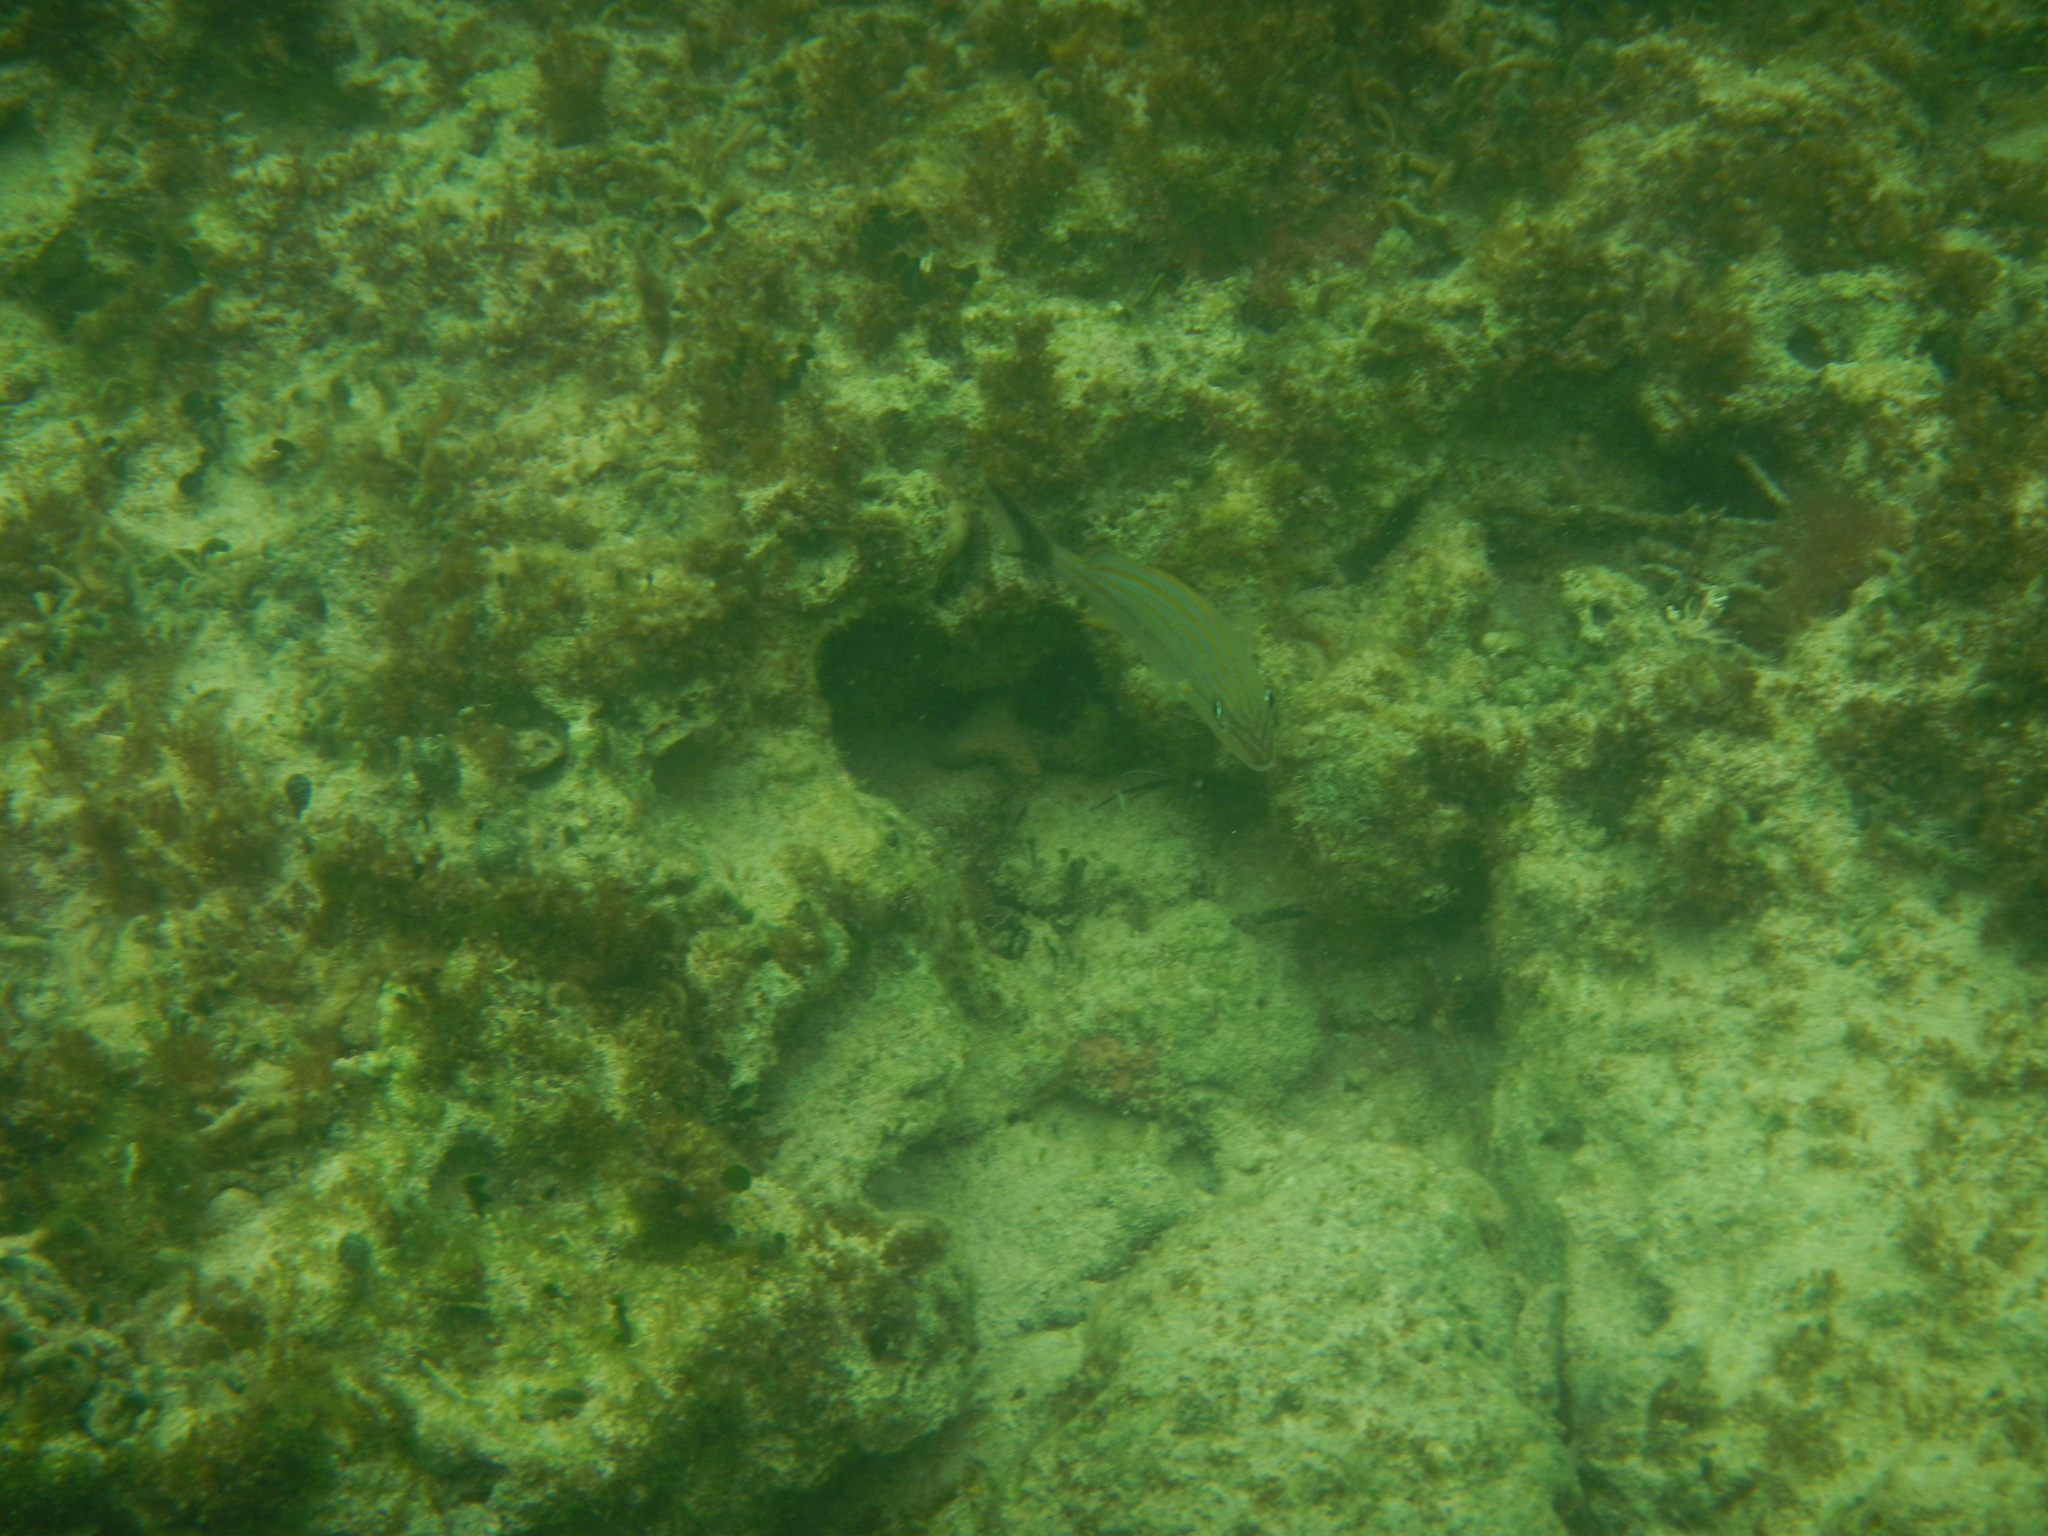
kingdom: Animalia
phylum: Chordata
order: Perciformes
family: Haemulidae
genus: Haemulon
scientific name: Haemulon carbonarium
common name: Caesar grunt
